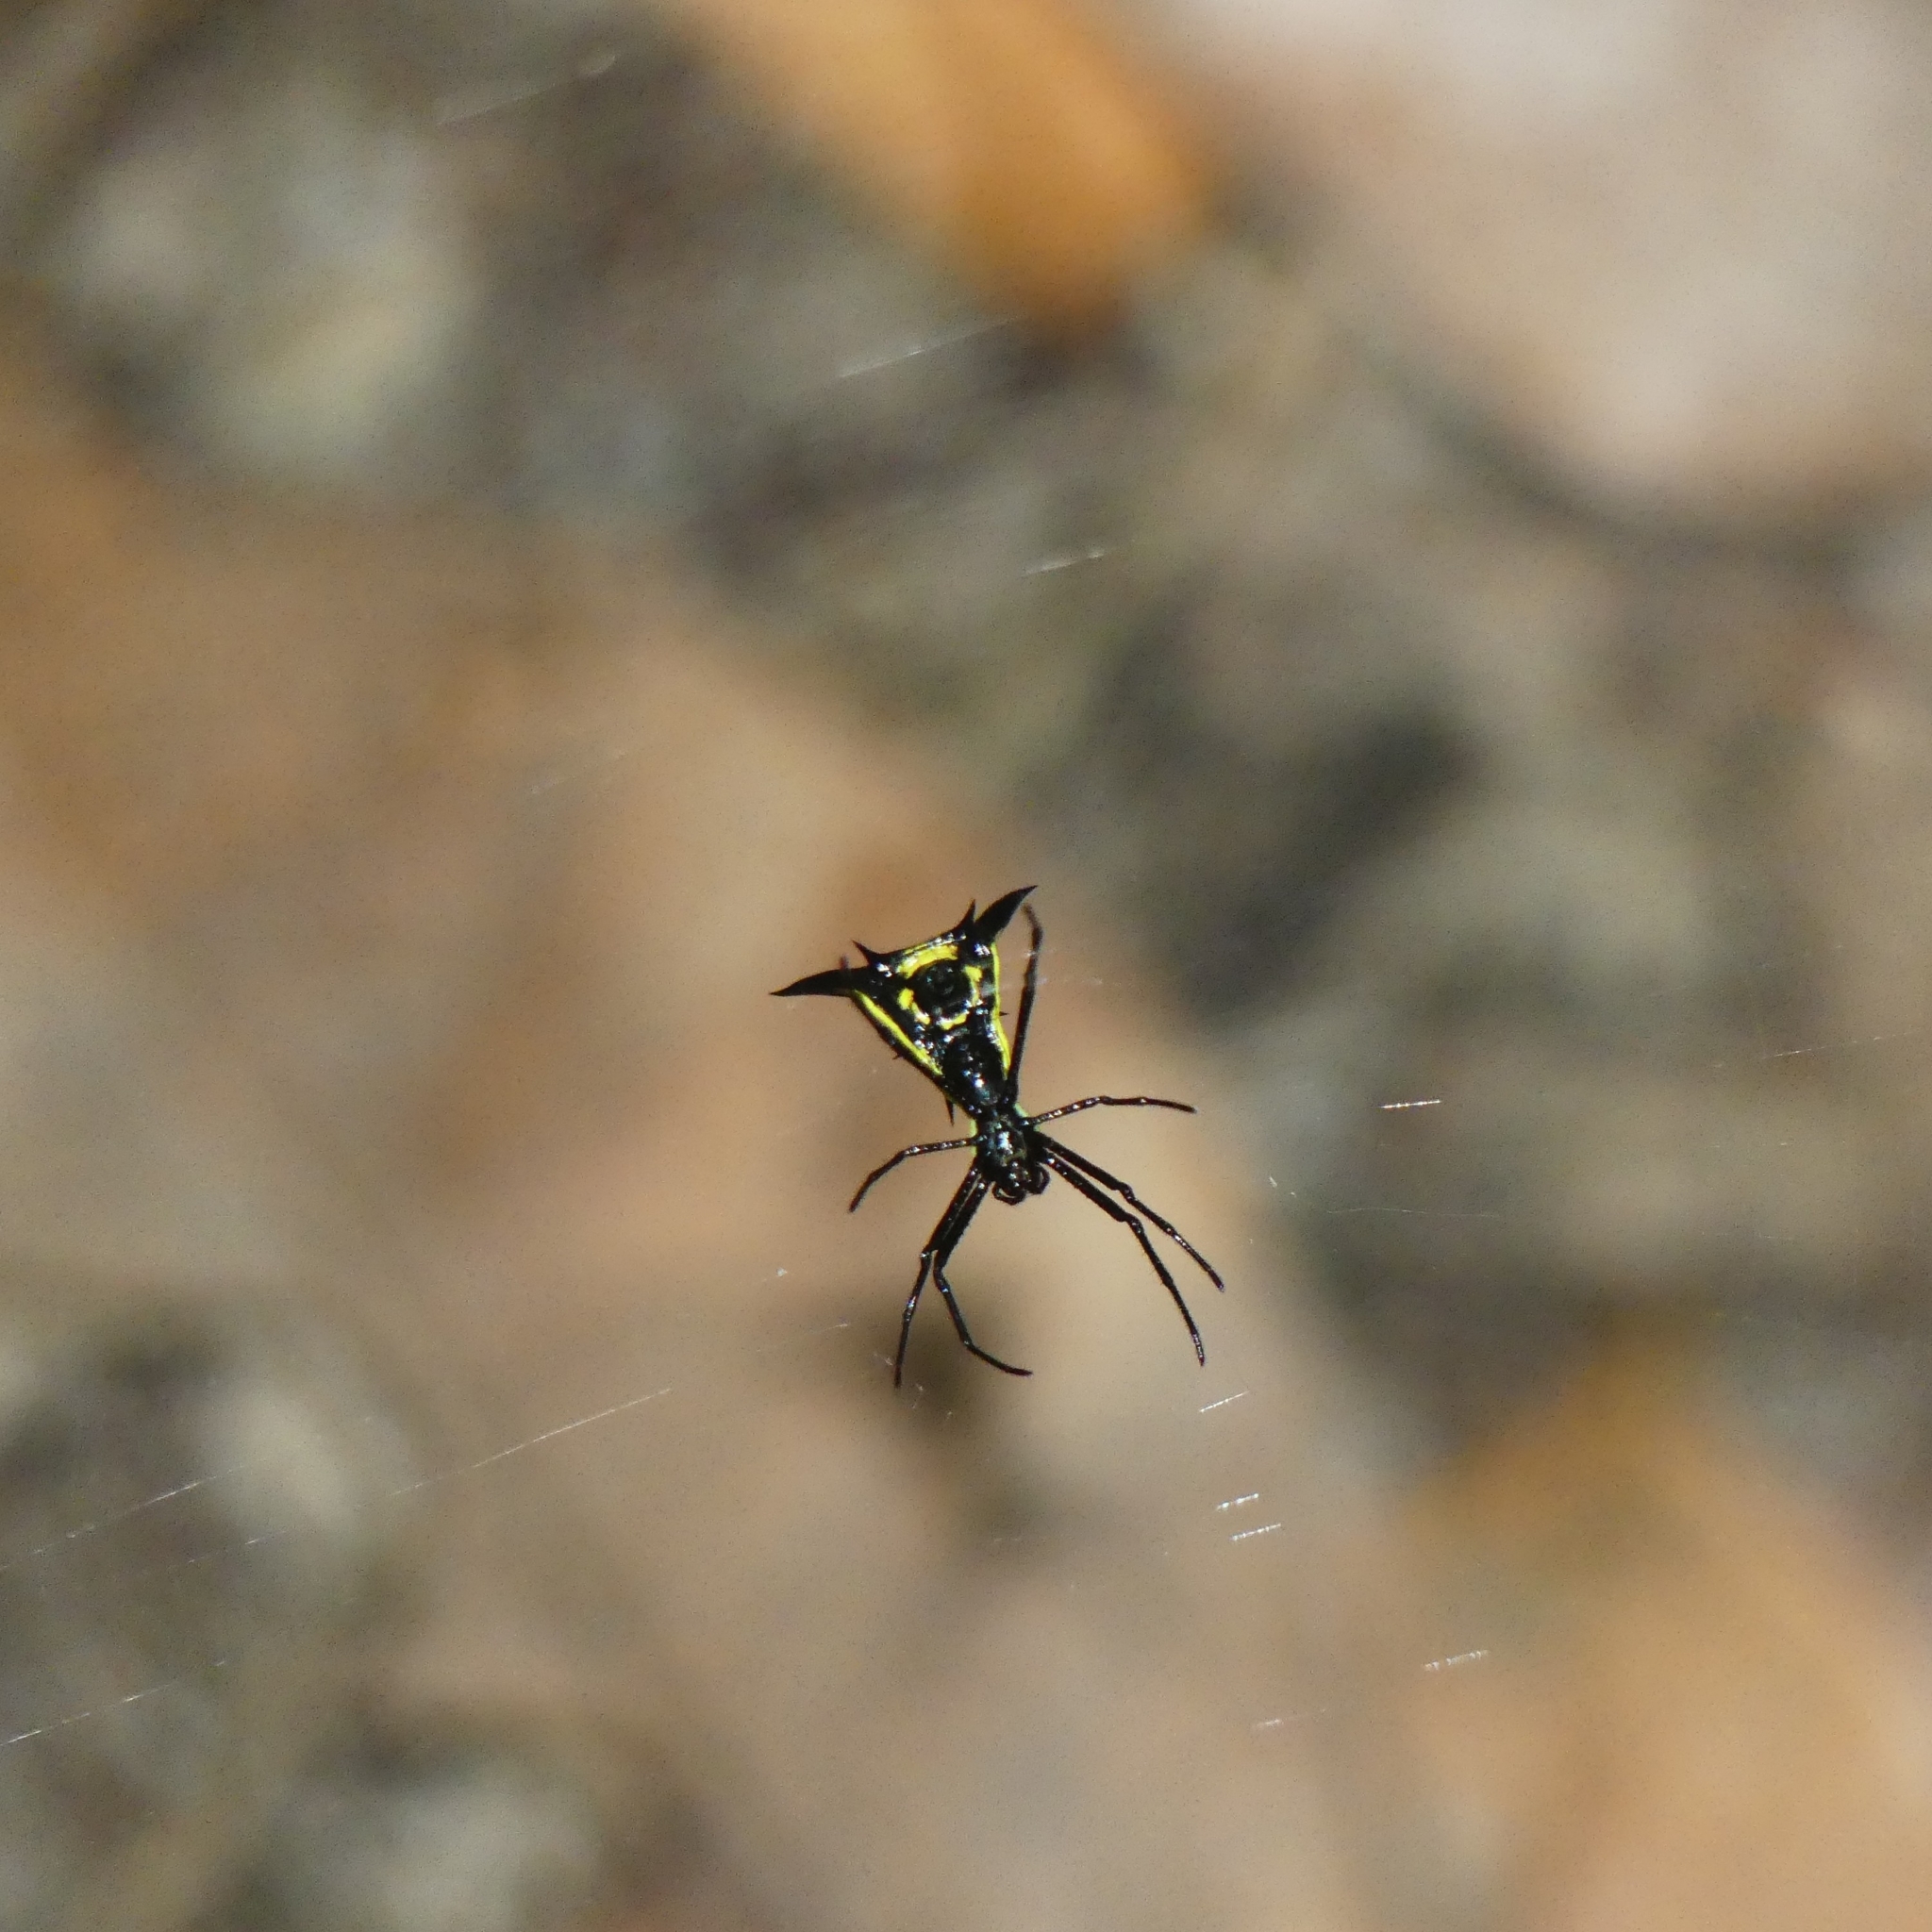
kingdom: Animalia
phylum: Arthropoda
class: Arachnida
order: Araneae
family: Araneidae
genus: Micrathena
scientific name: Micrathena schreibersi
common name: Orb weavers
